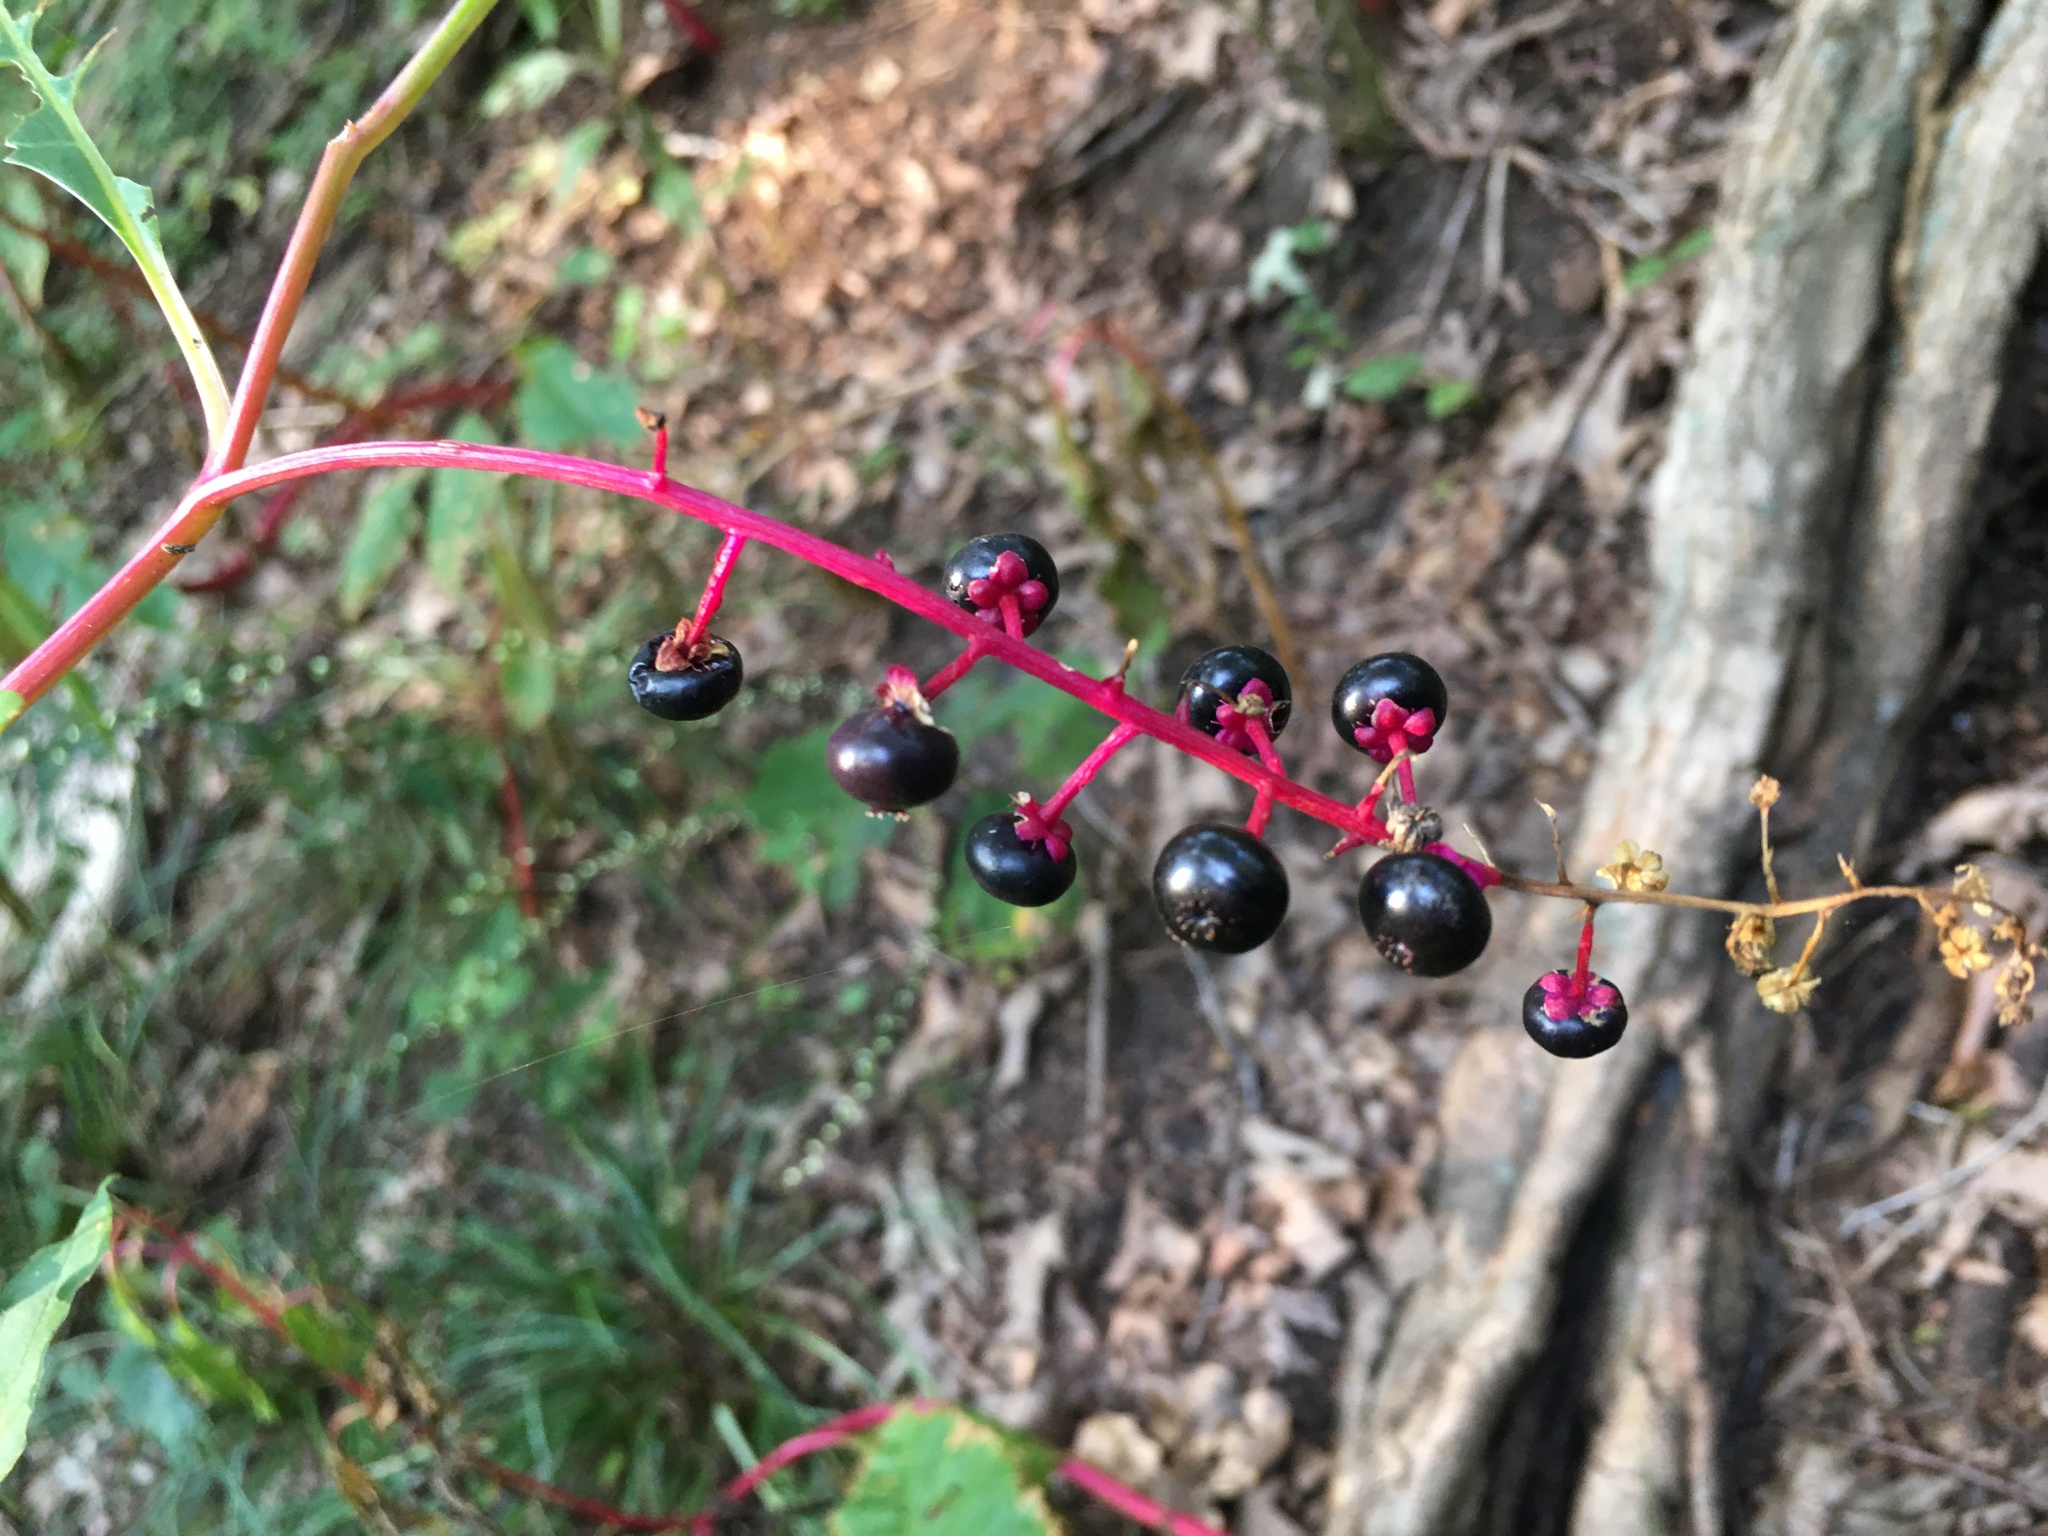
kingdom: Plantae
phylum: Tracheophyta
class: Magnoliopsida
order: Caryophyllales
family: Phytolaccaceae
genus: Phytolacca
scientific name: Phytolacca americana
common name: American pokeweed
